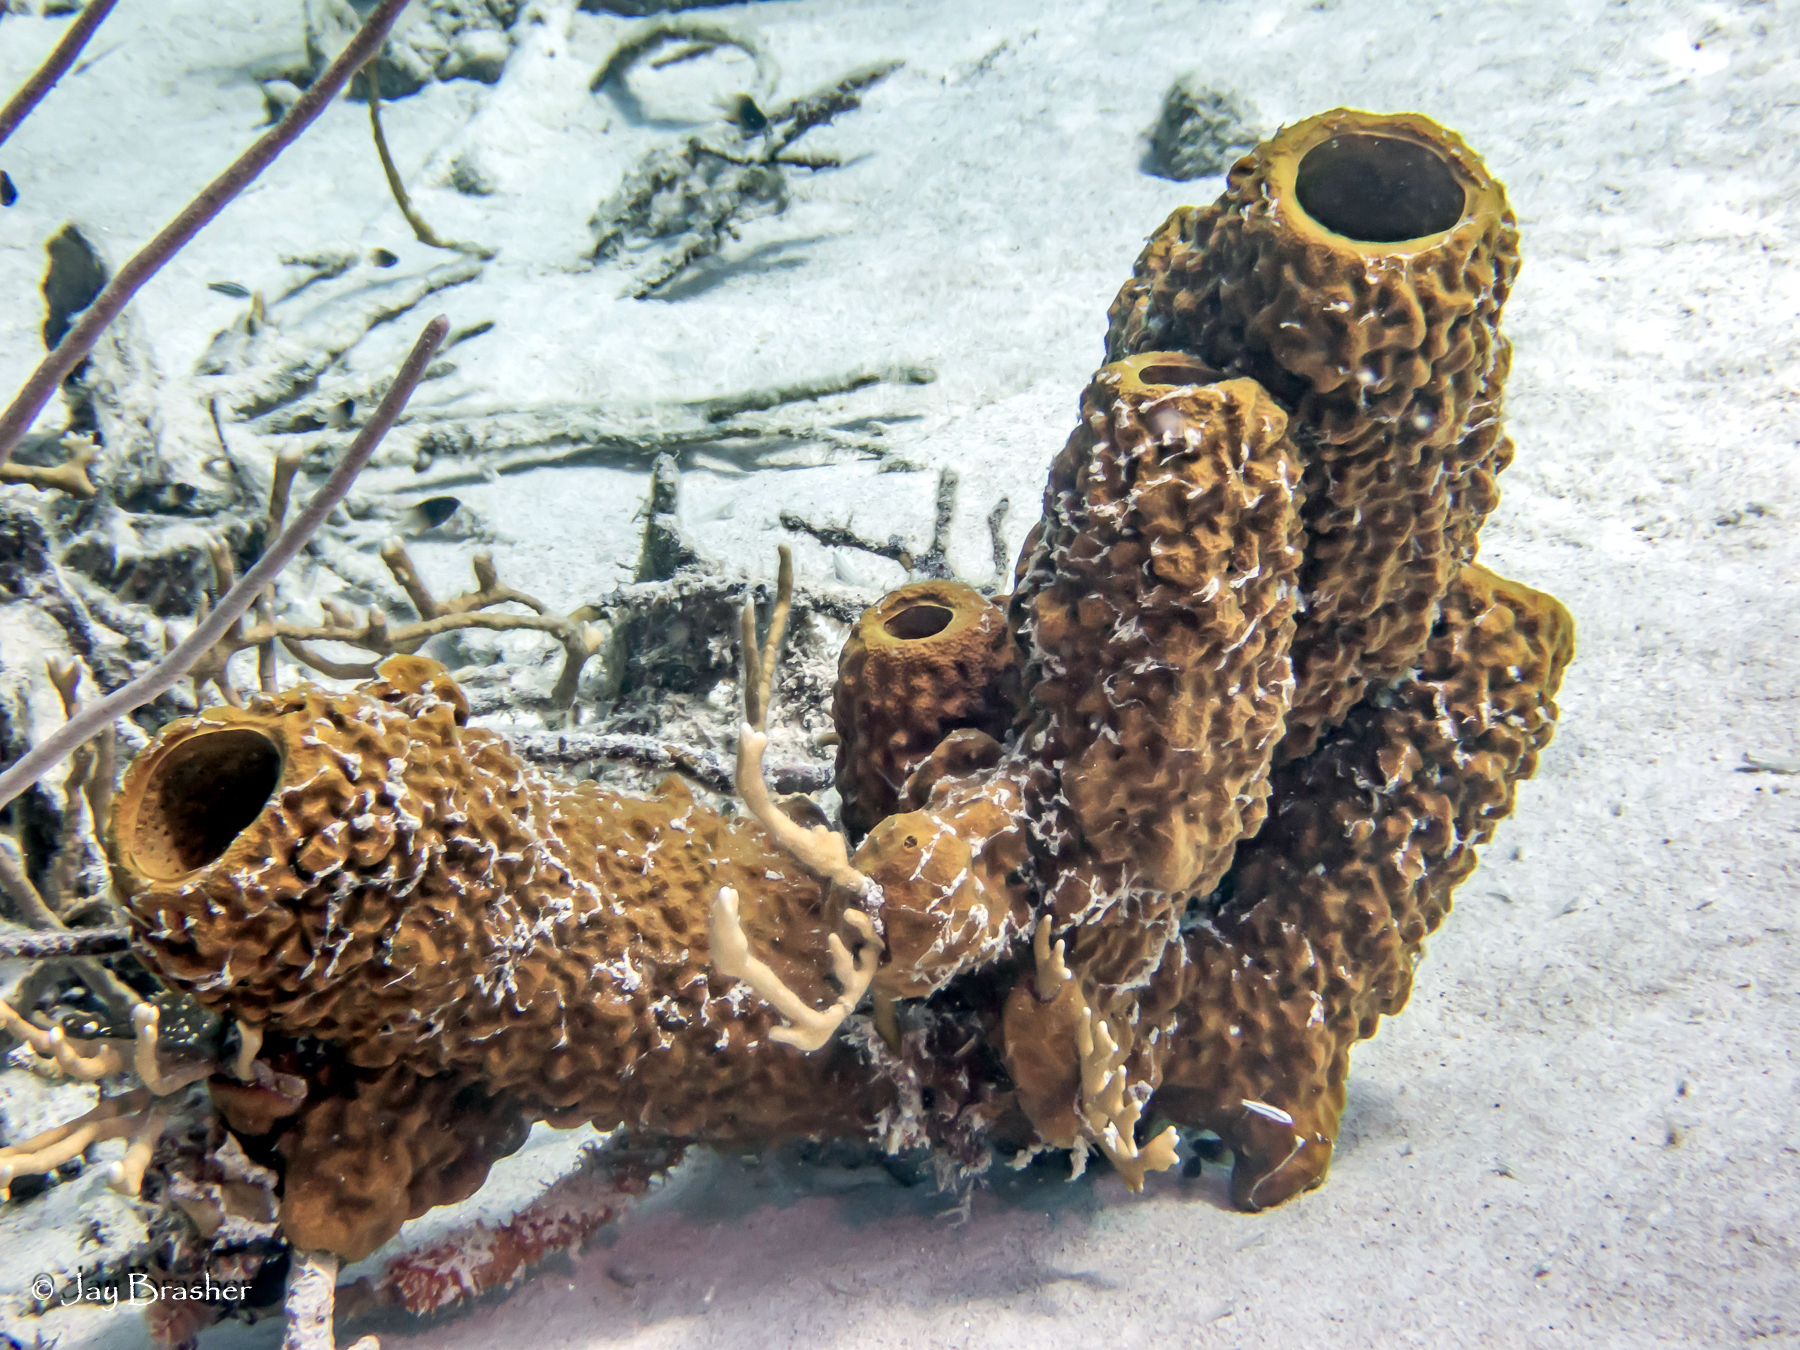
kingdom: Animalia
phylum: Porifera
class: Demospongiae
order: Verongiida
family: Aplysinidae
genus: Aplysina
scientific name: Aplysina archeri
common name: Stove-pipe sponge
